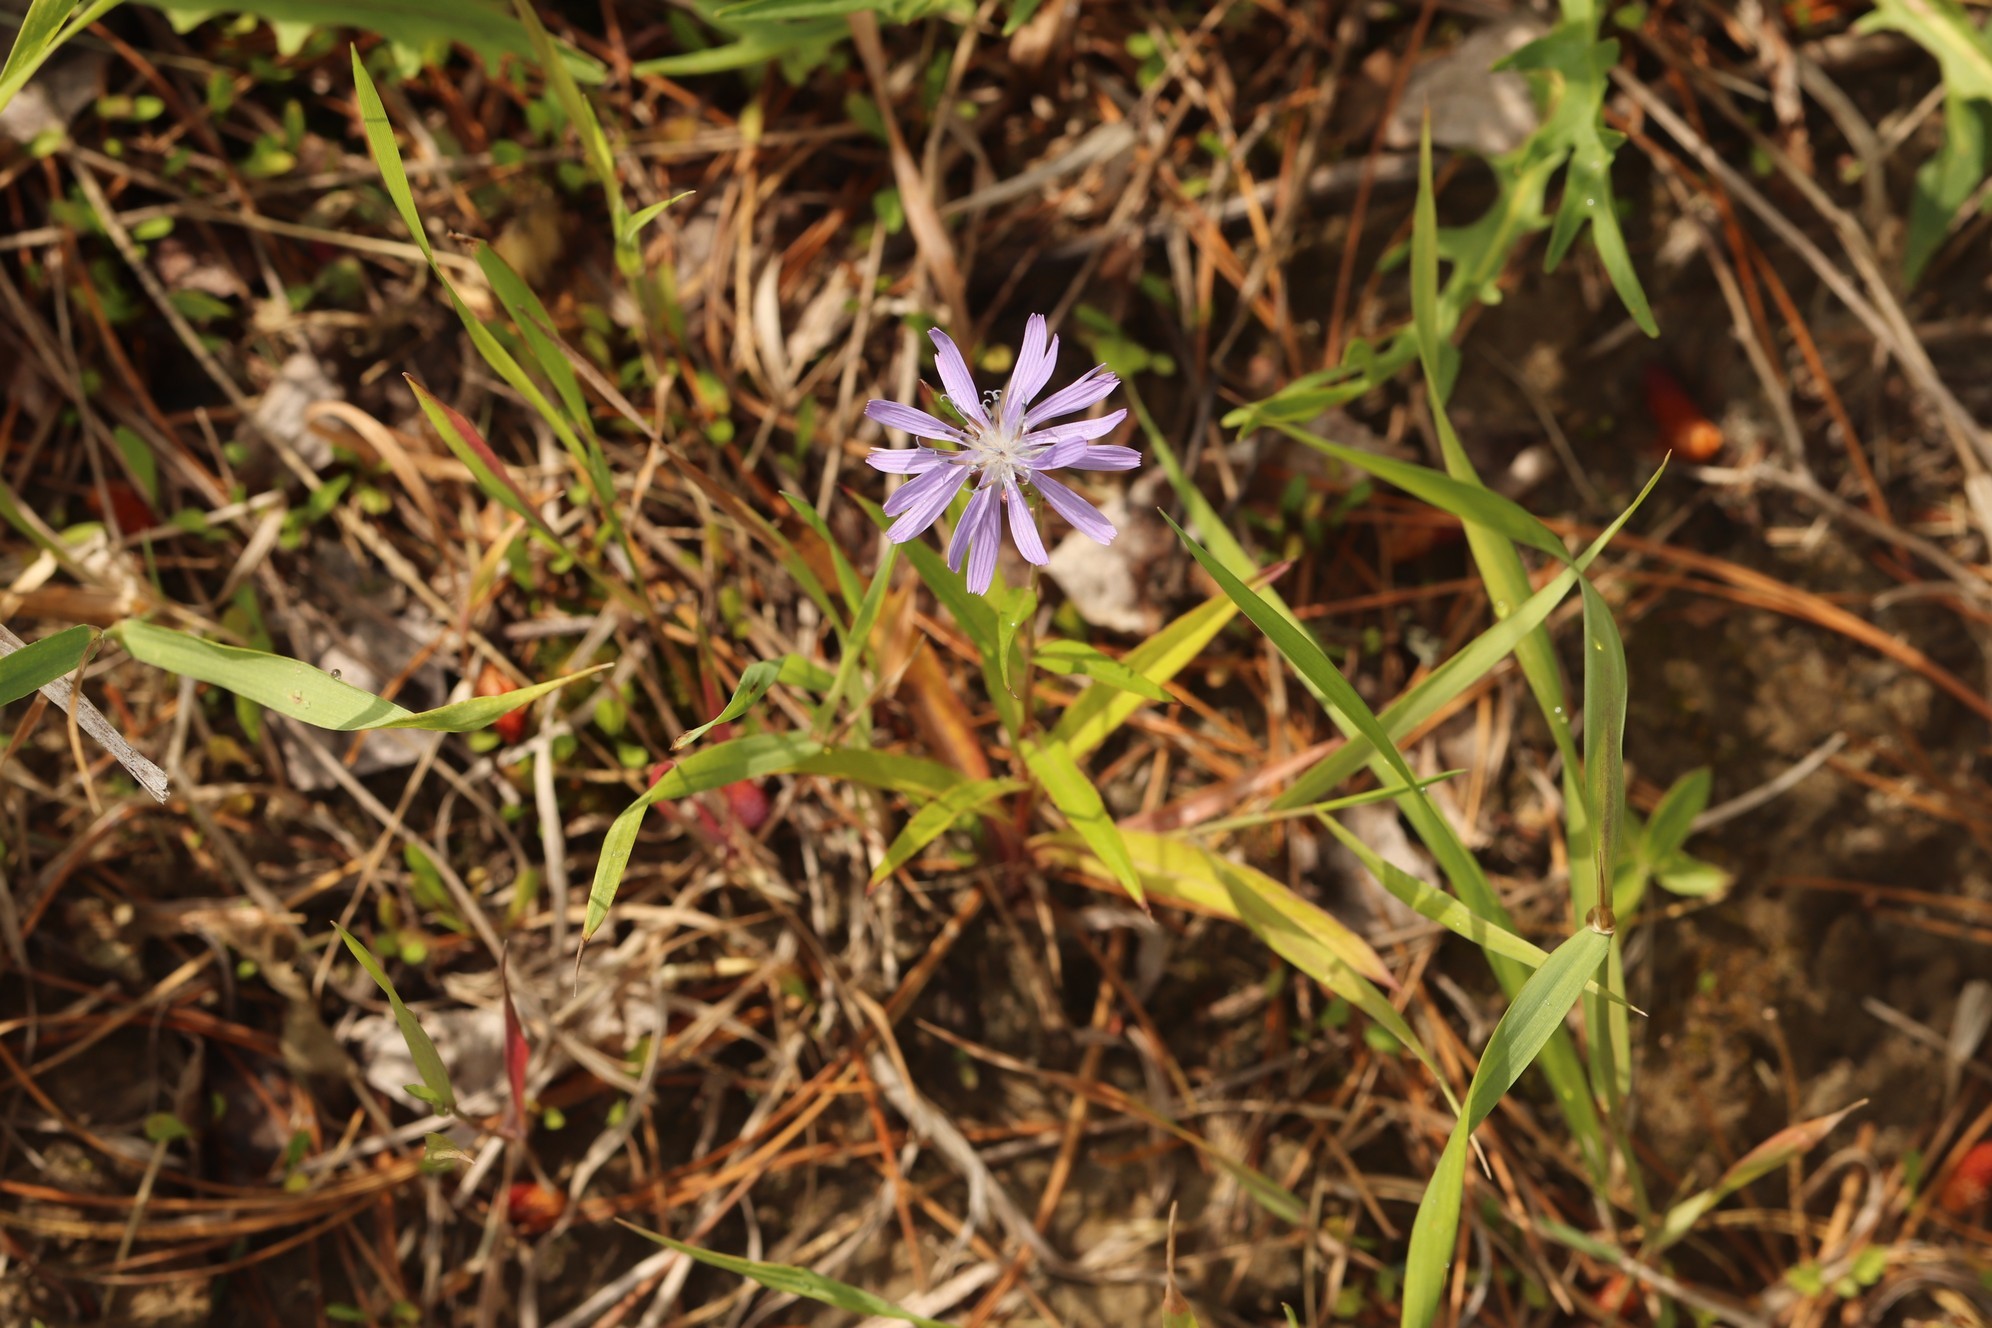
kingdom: Plantae
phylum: Tracheophyta
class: Magnoliopsida
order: Asterales
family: Asteraceae
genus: Lactuca
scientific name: Lactuca sibirica
